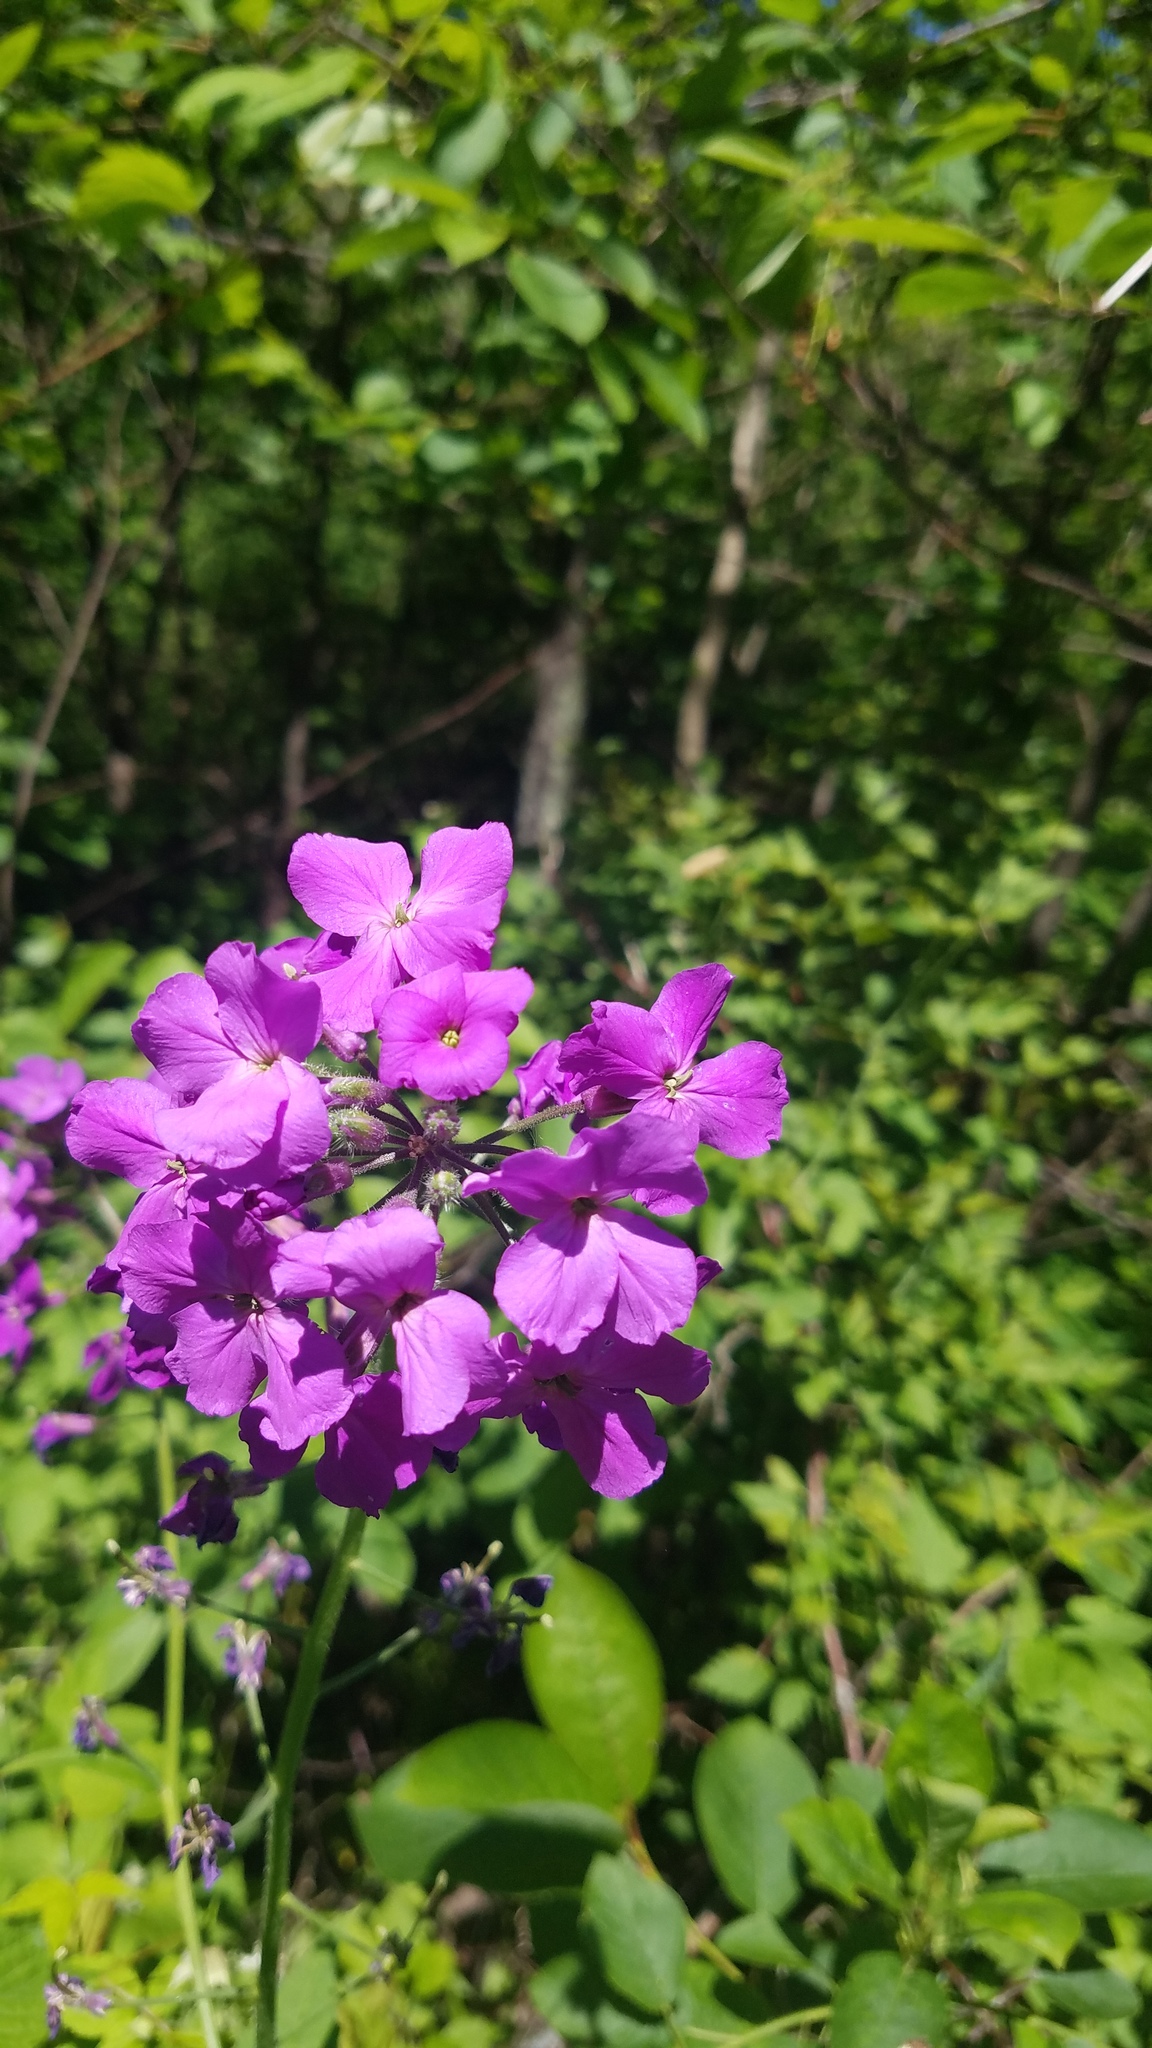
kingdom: Plantae
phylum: Tracheophyta
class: Magnoliopsida
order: Brassicales
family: Brassicaceae
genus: Hesperis
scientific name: Hesperis matronalis
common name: Dame's-violet
